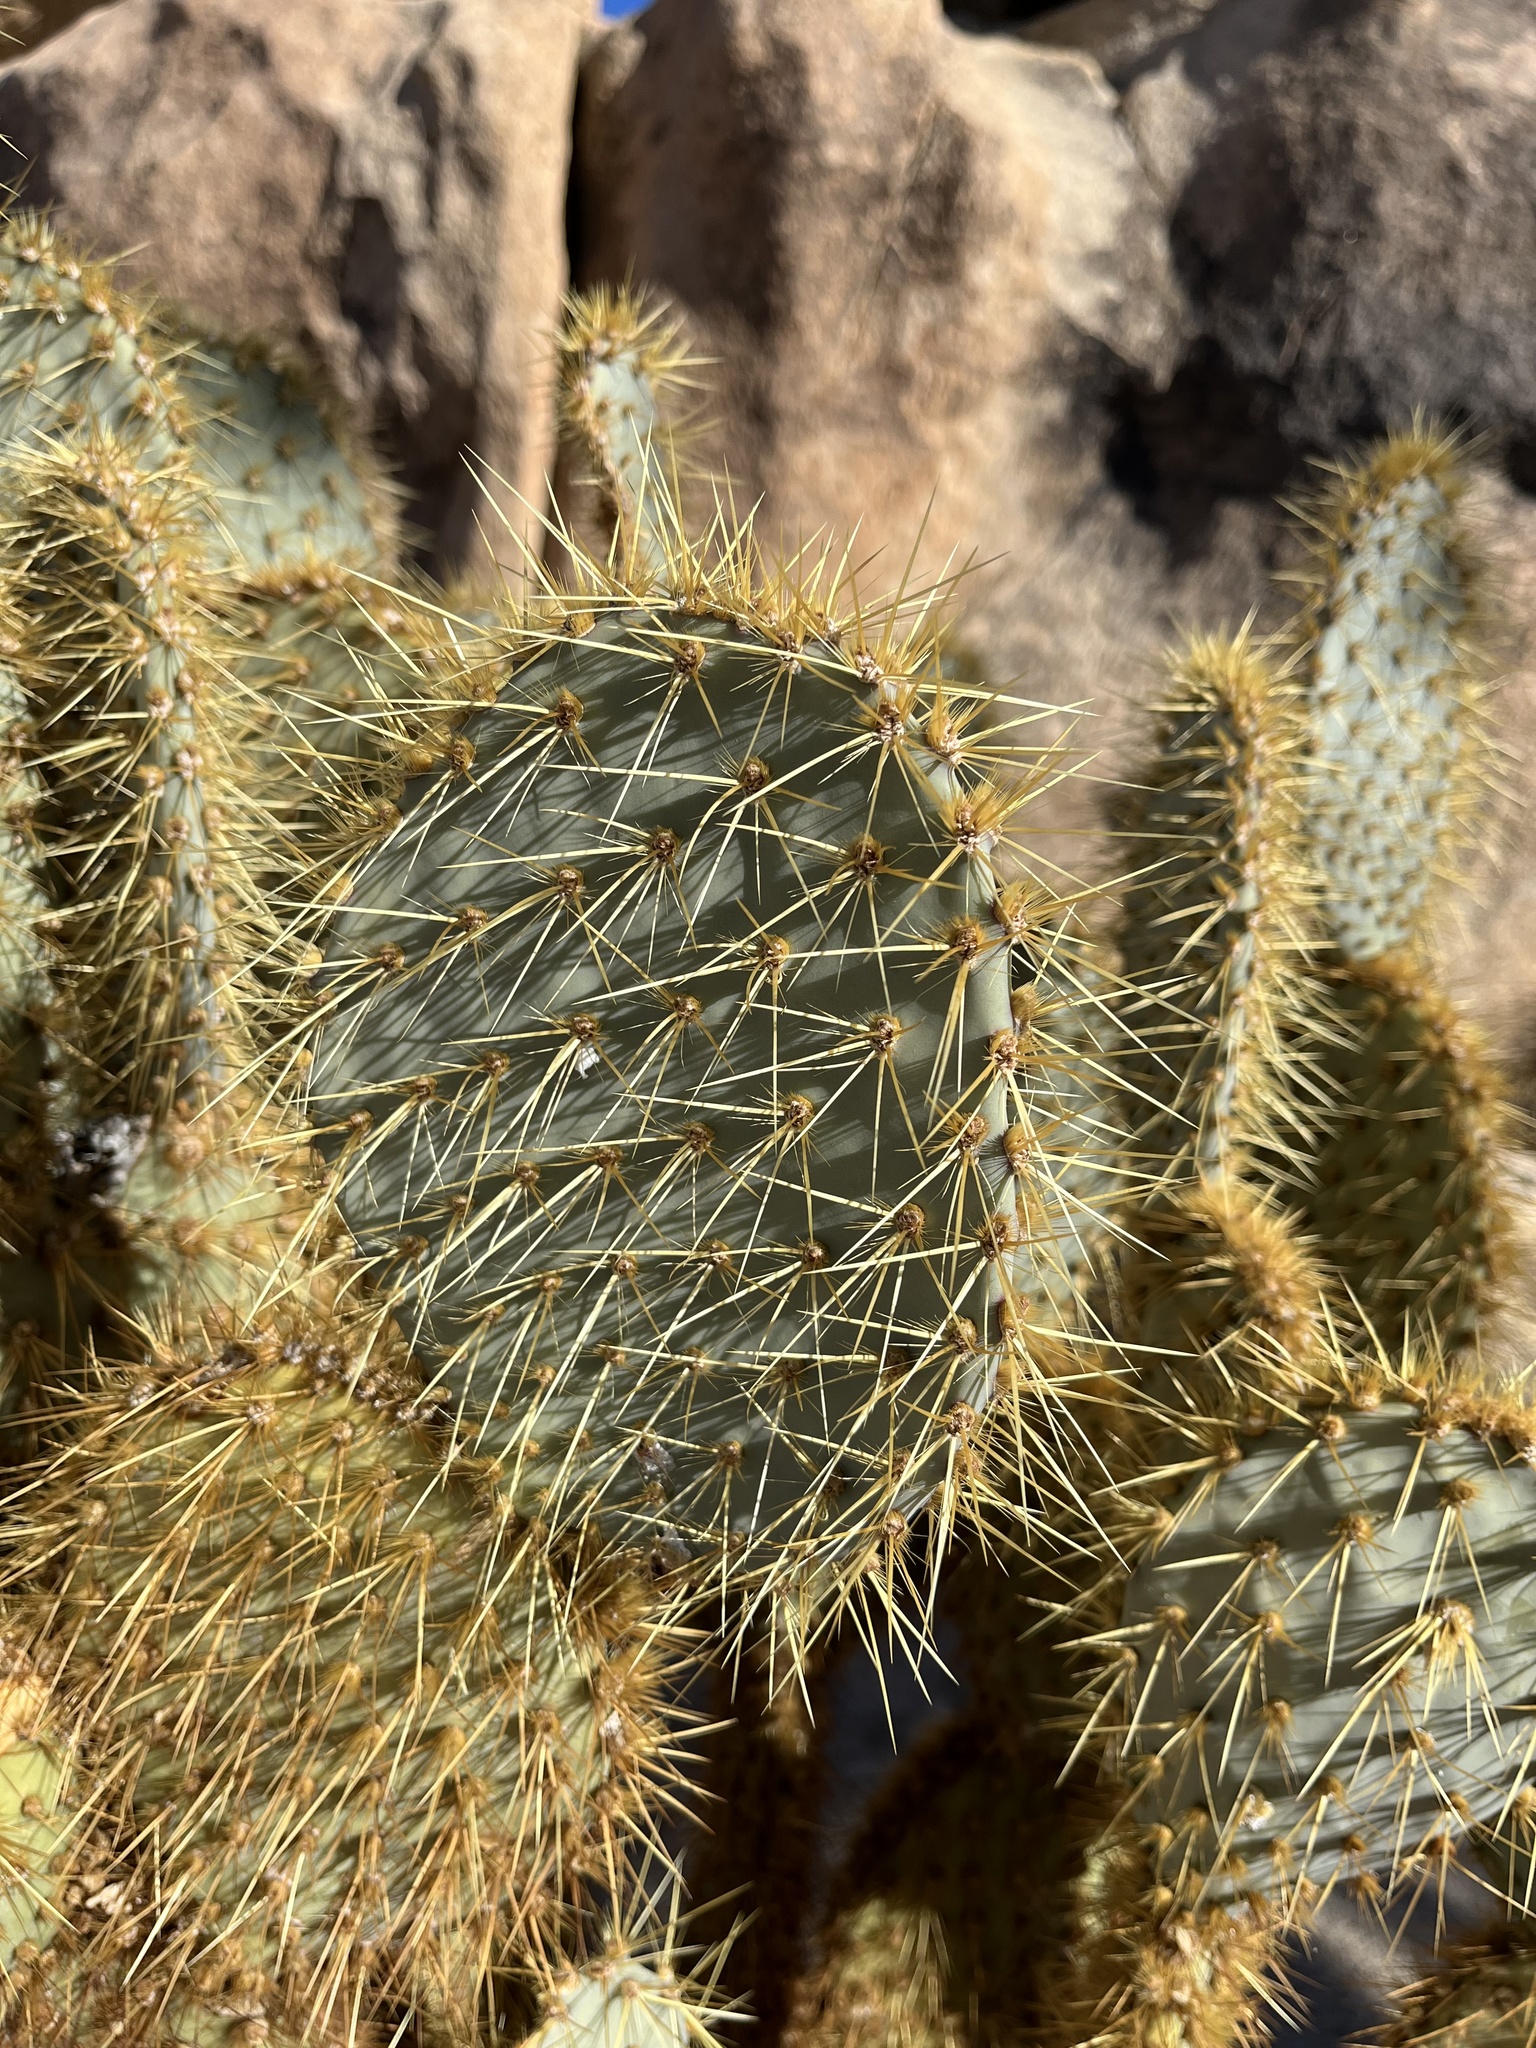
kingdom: Plantae
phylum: Tracheophyta
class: Magnoliopsida
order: Caryophyllales
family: Cactaceae
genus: Opuntia
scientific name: Opuntia chlorotica
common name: Dollar-joint prickly-pear
